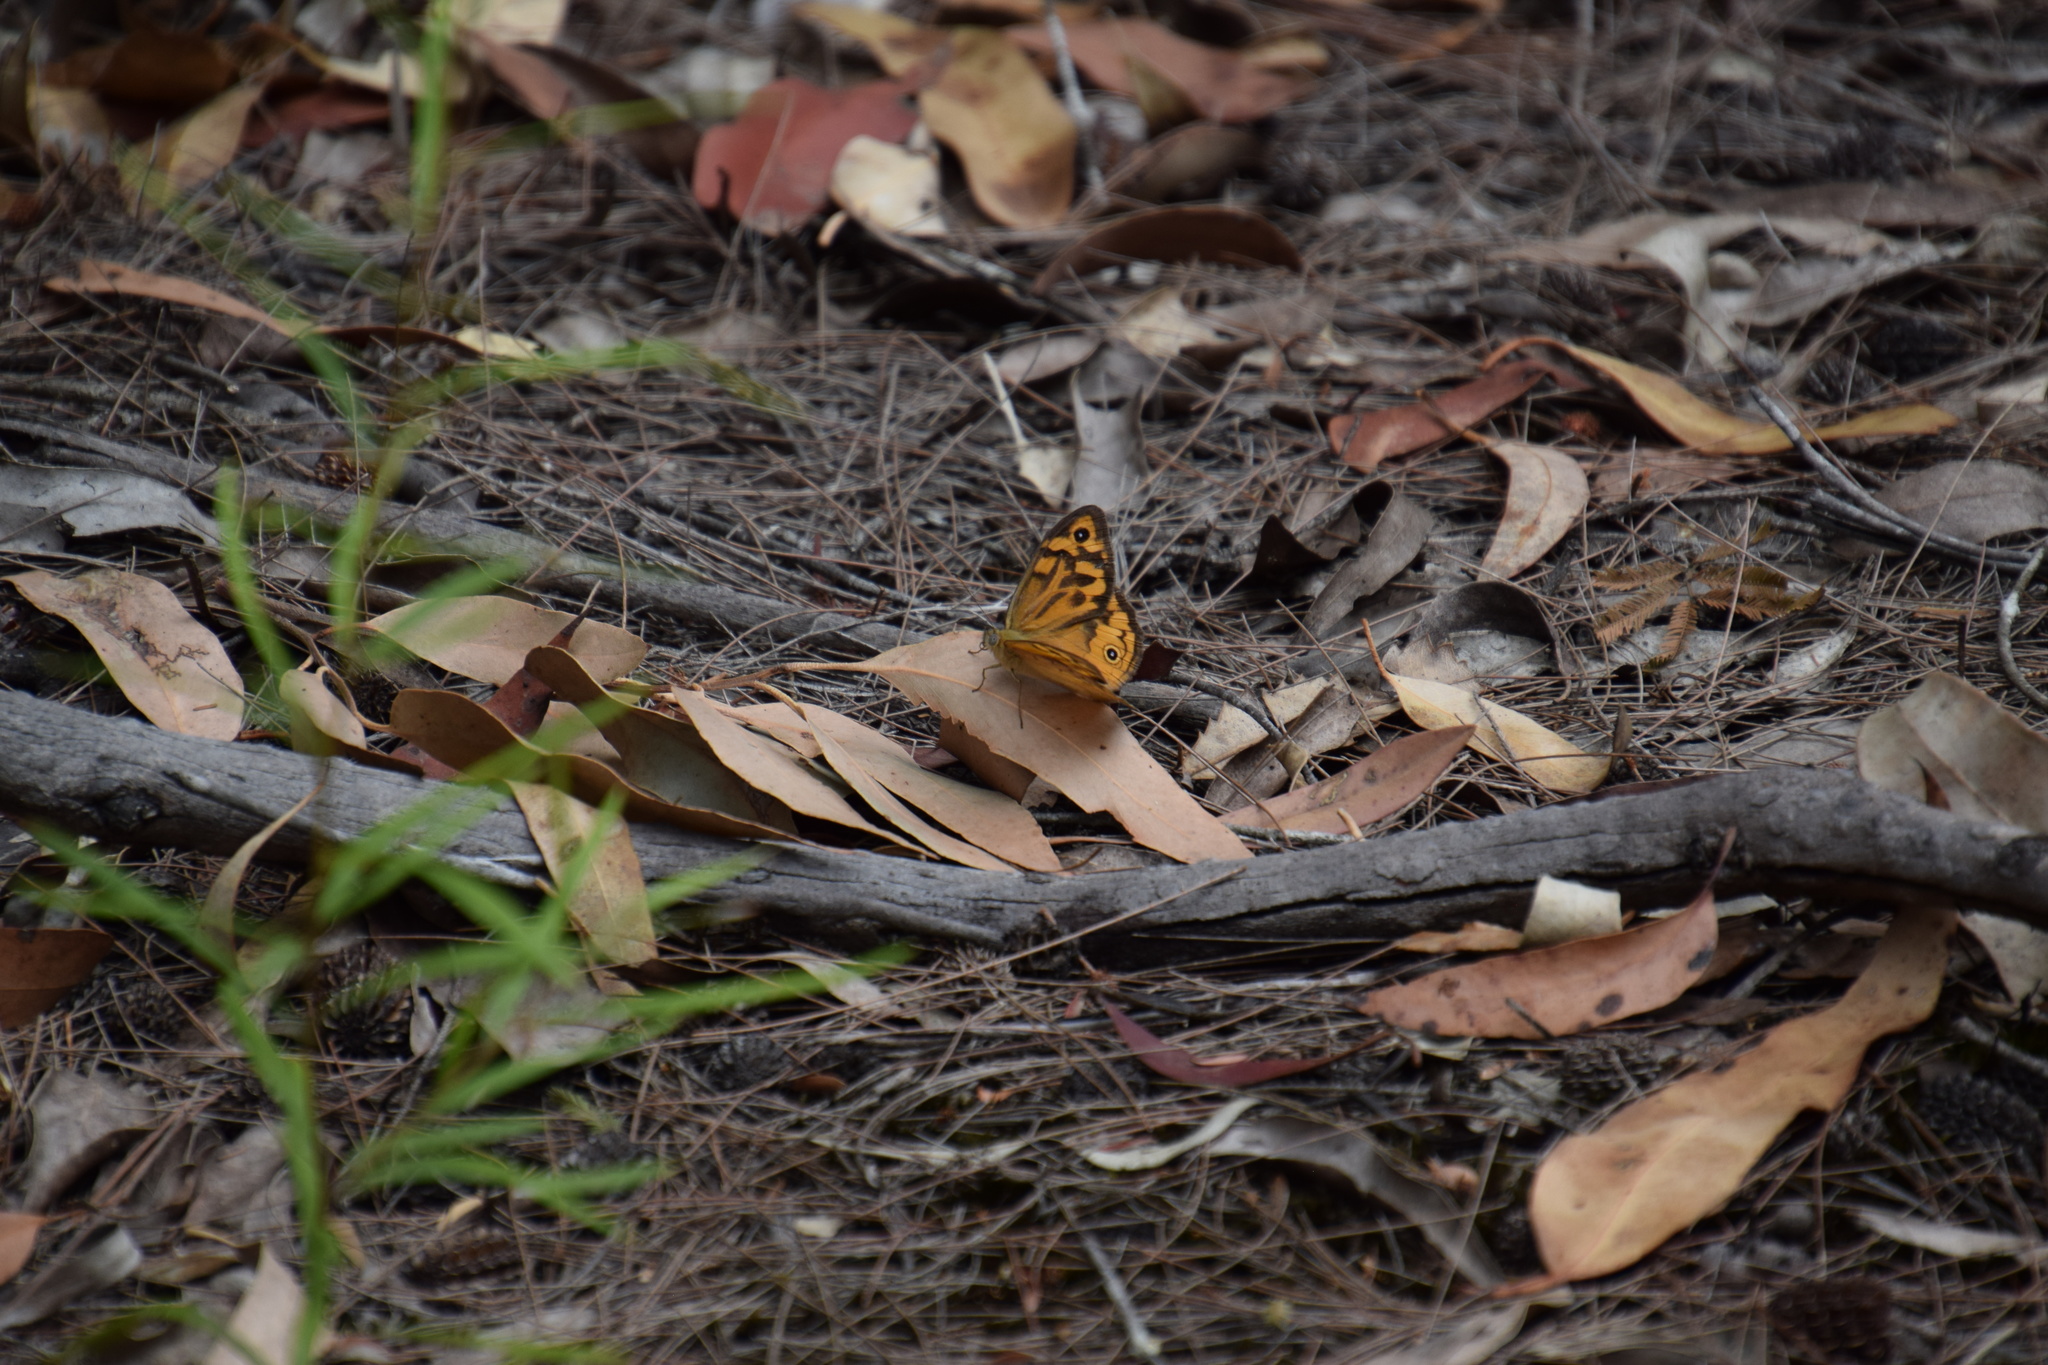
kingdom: Animalia
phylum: Arthropoda
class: Insecta
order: Lepidoptera
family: Nymphalidae
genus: Heteronympha
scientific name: Heteronympha merope
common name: Common brown
